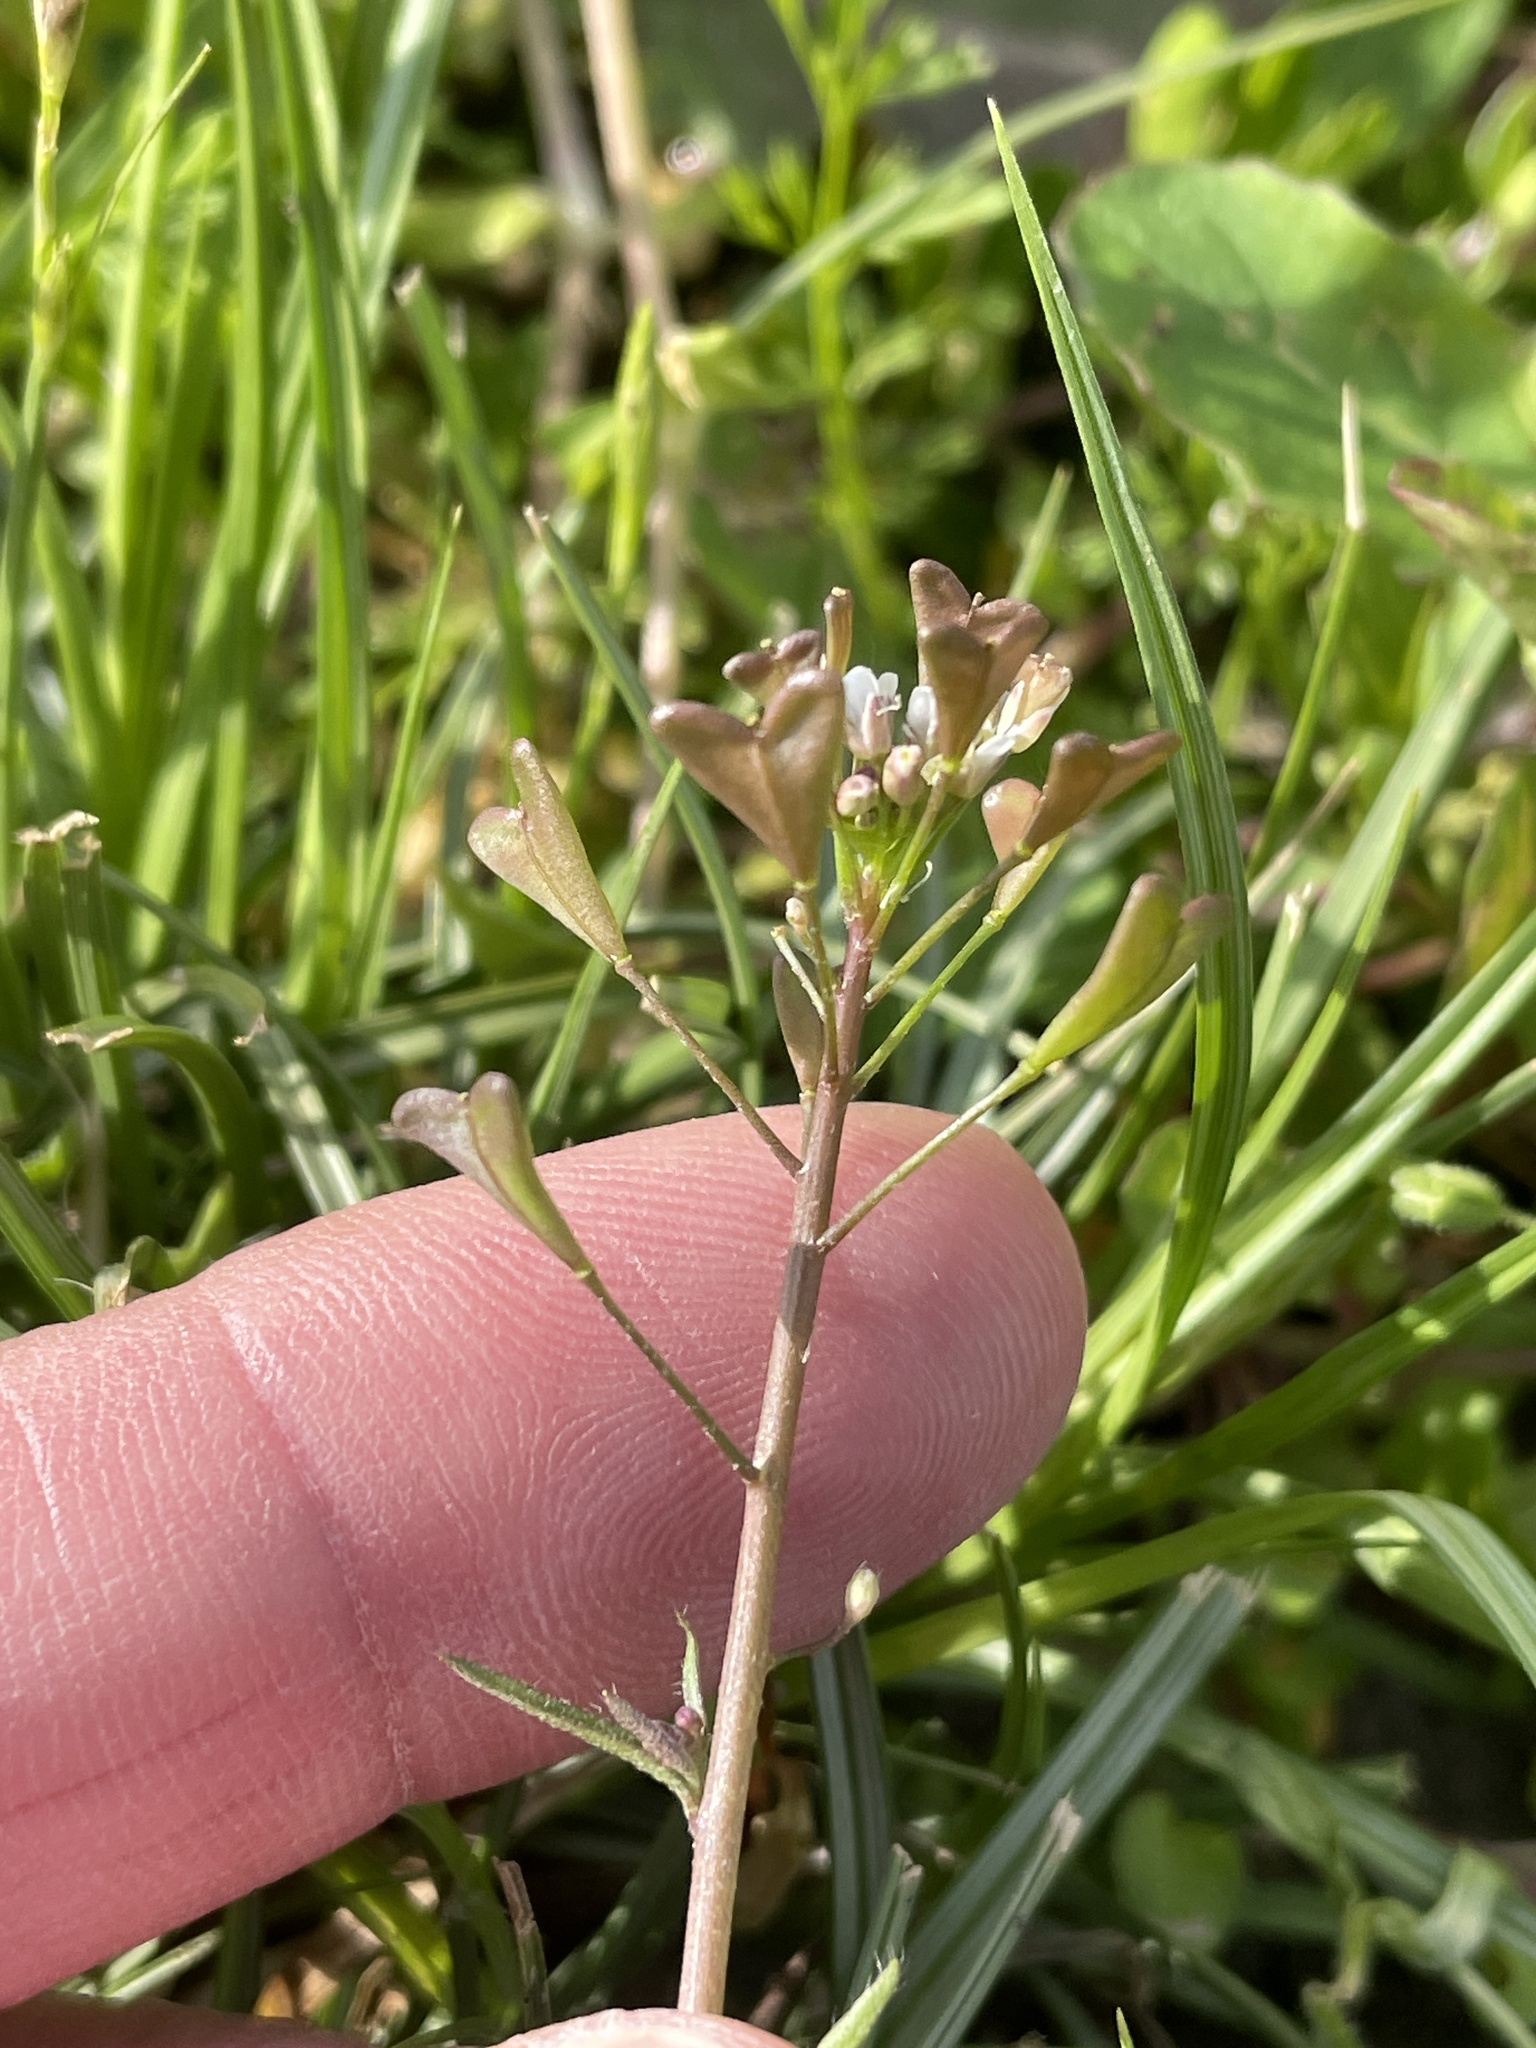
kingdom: Plantae
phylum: Tracheophyta
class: Magnoliopsida
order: Brassicales
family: Brassicaceae
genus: Capsella
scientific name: Capsella bursa-pastoris
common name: Shepherd's purse
